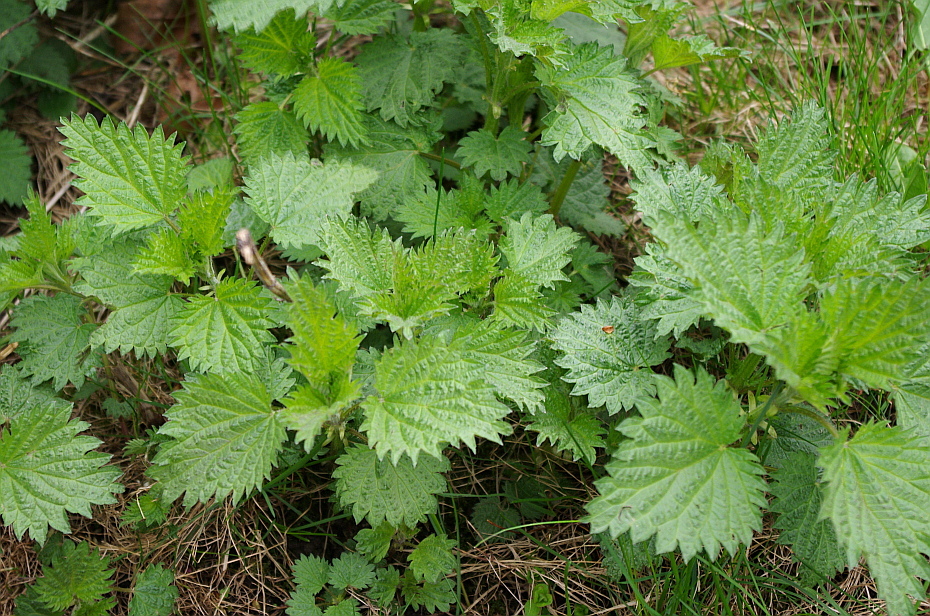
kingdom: Plantae
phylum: Tracheophyta
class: Magnoliopsida
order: Rosales
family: Urticaceae
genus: Urtica
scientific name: Urtica dioica
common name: Common nettle
